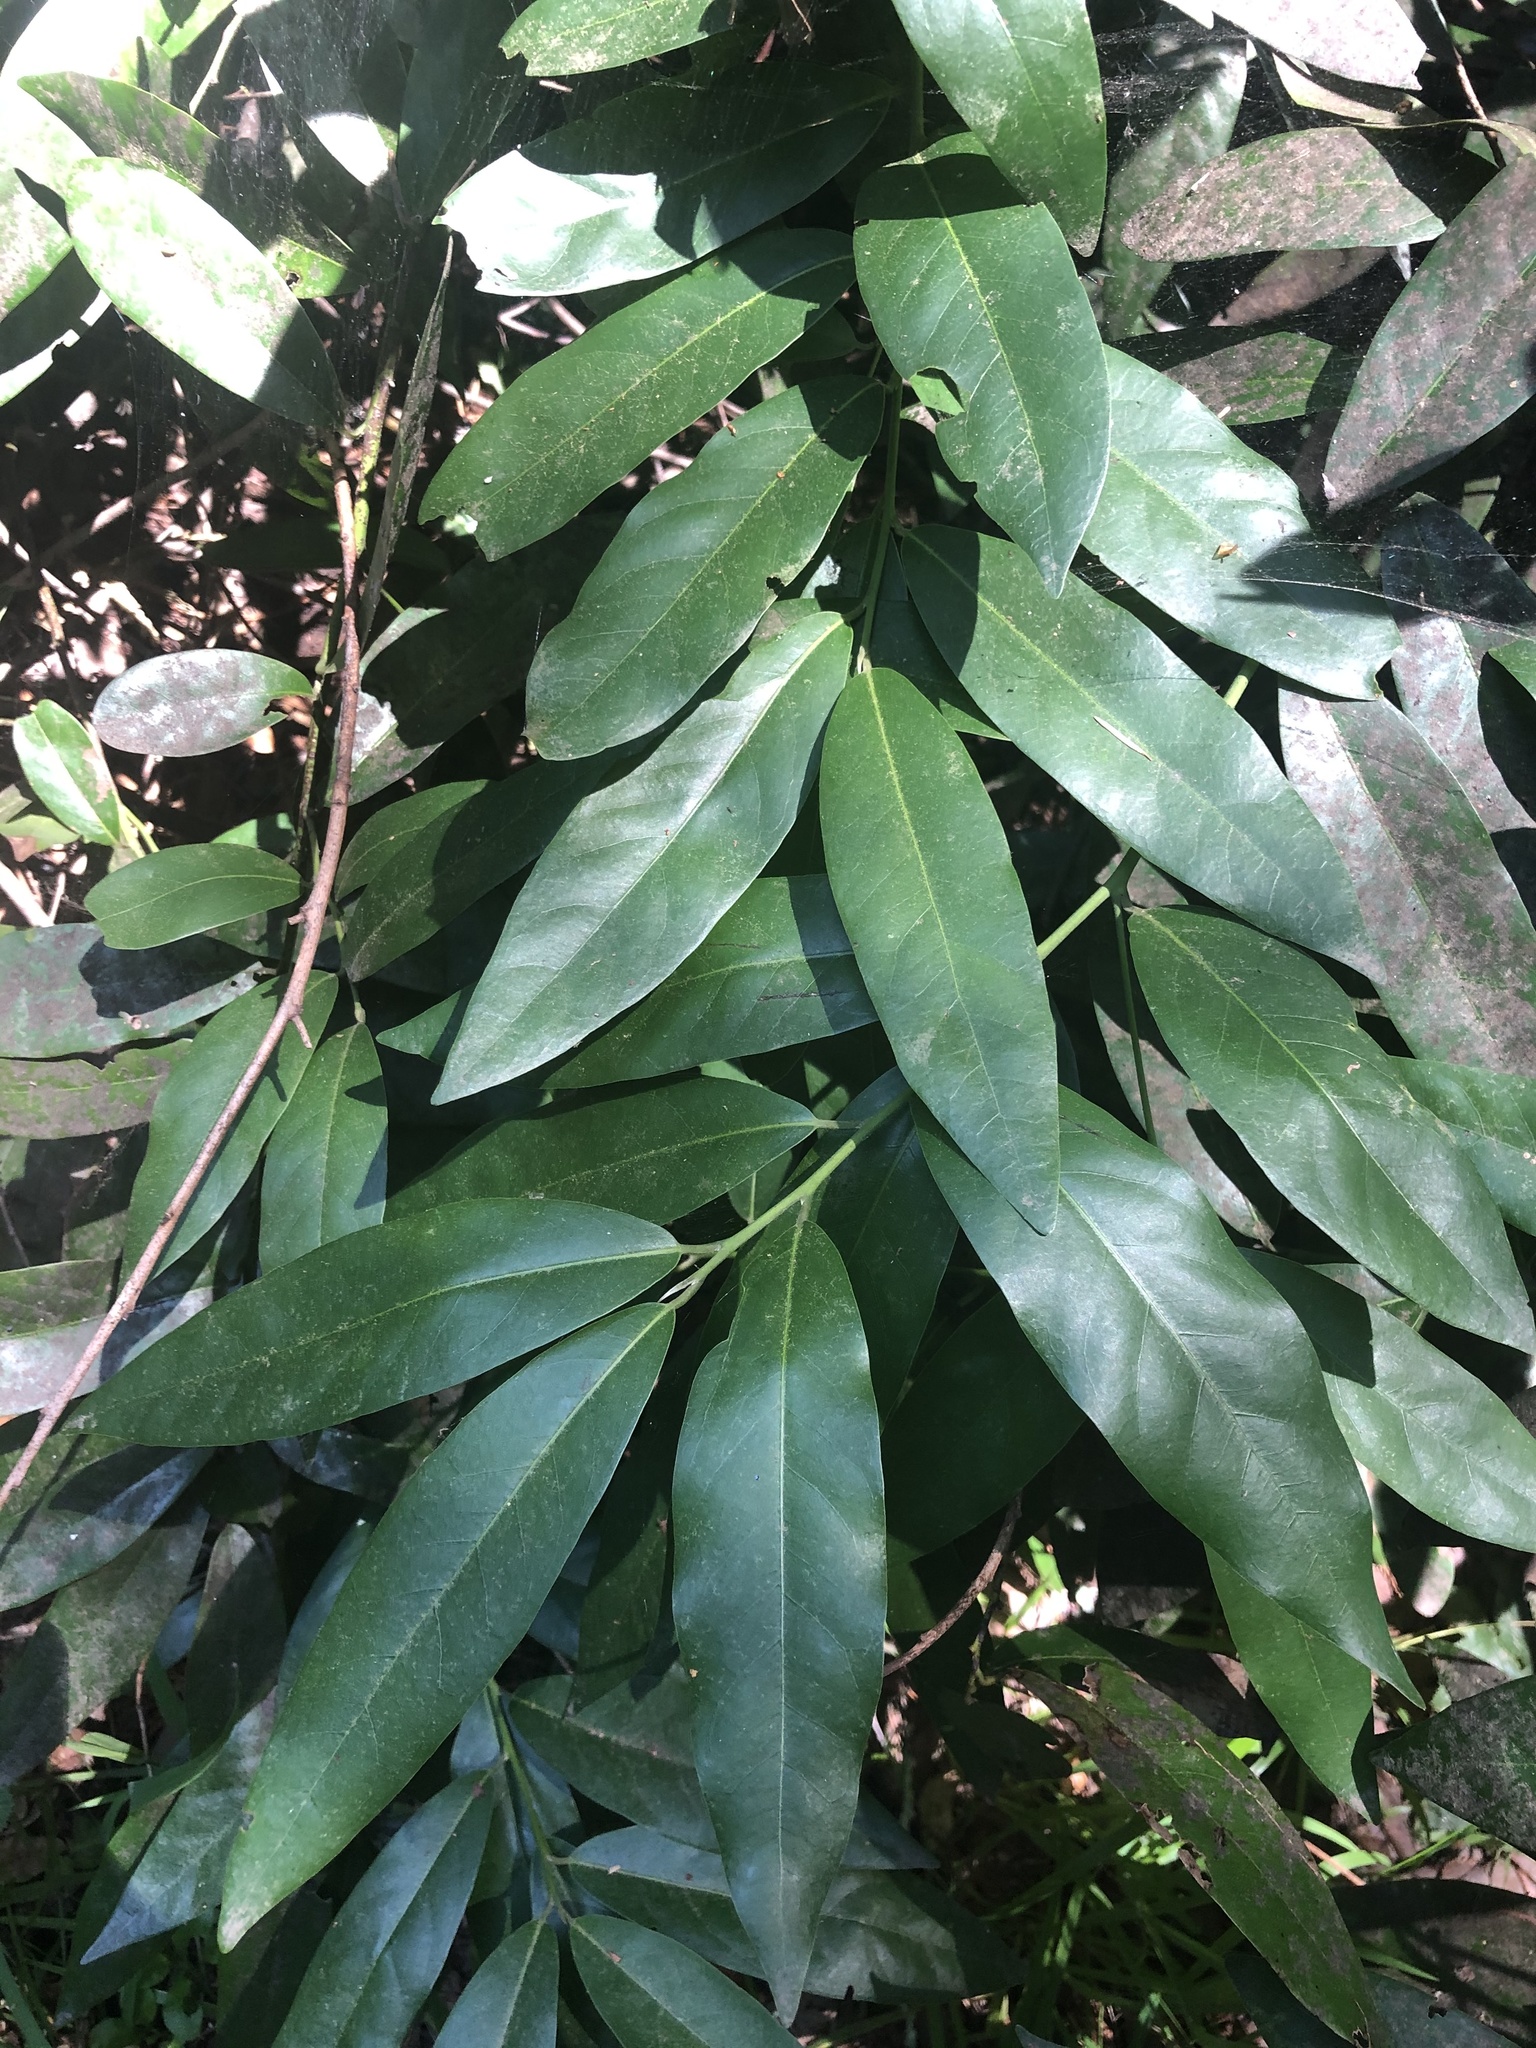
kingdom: Plantae
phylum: Tracheophyta
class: Magnoliopsida
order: Laurales
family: Lauraceae
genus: Umbellularia
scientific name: Umbellularia californica
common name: California bay
